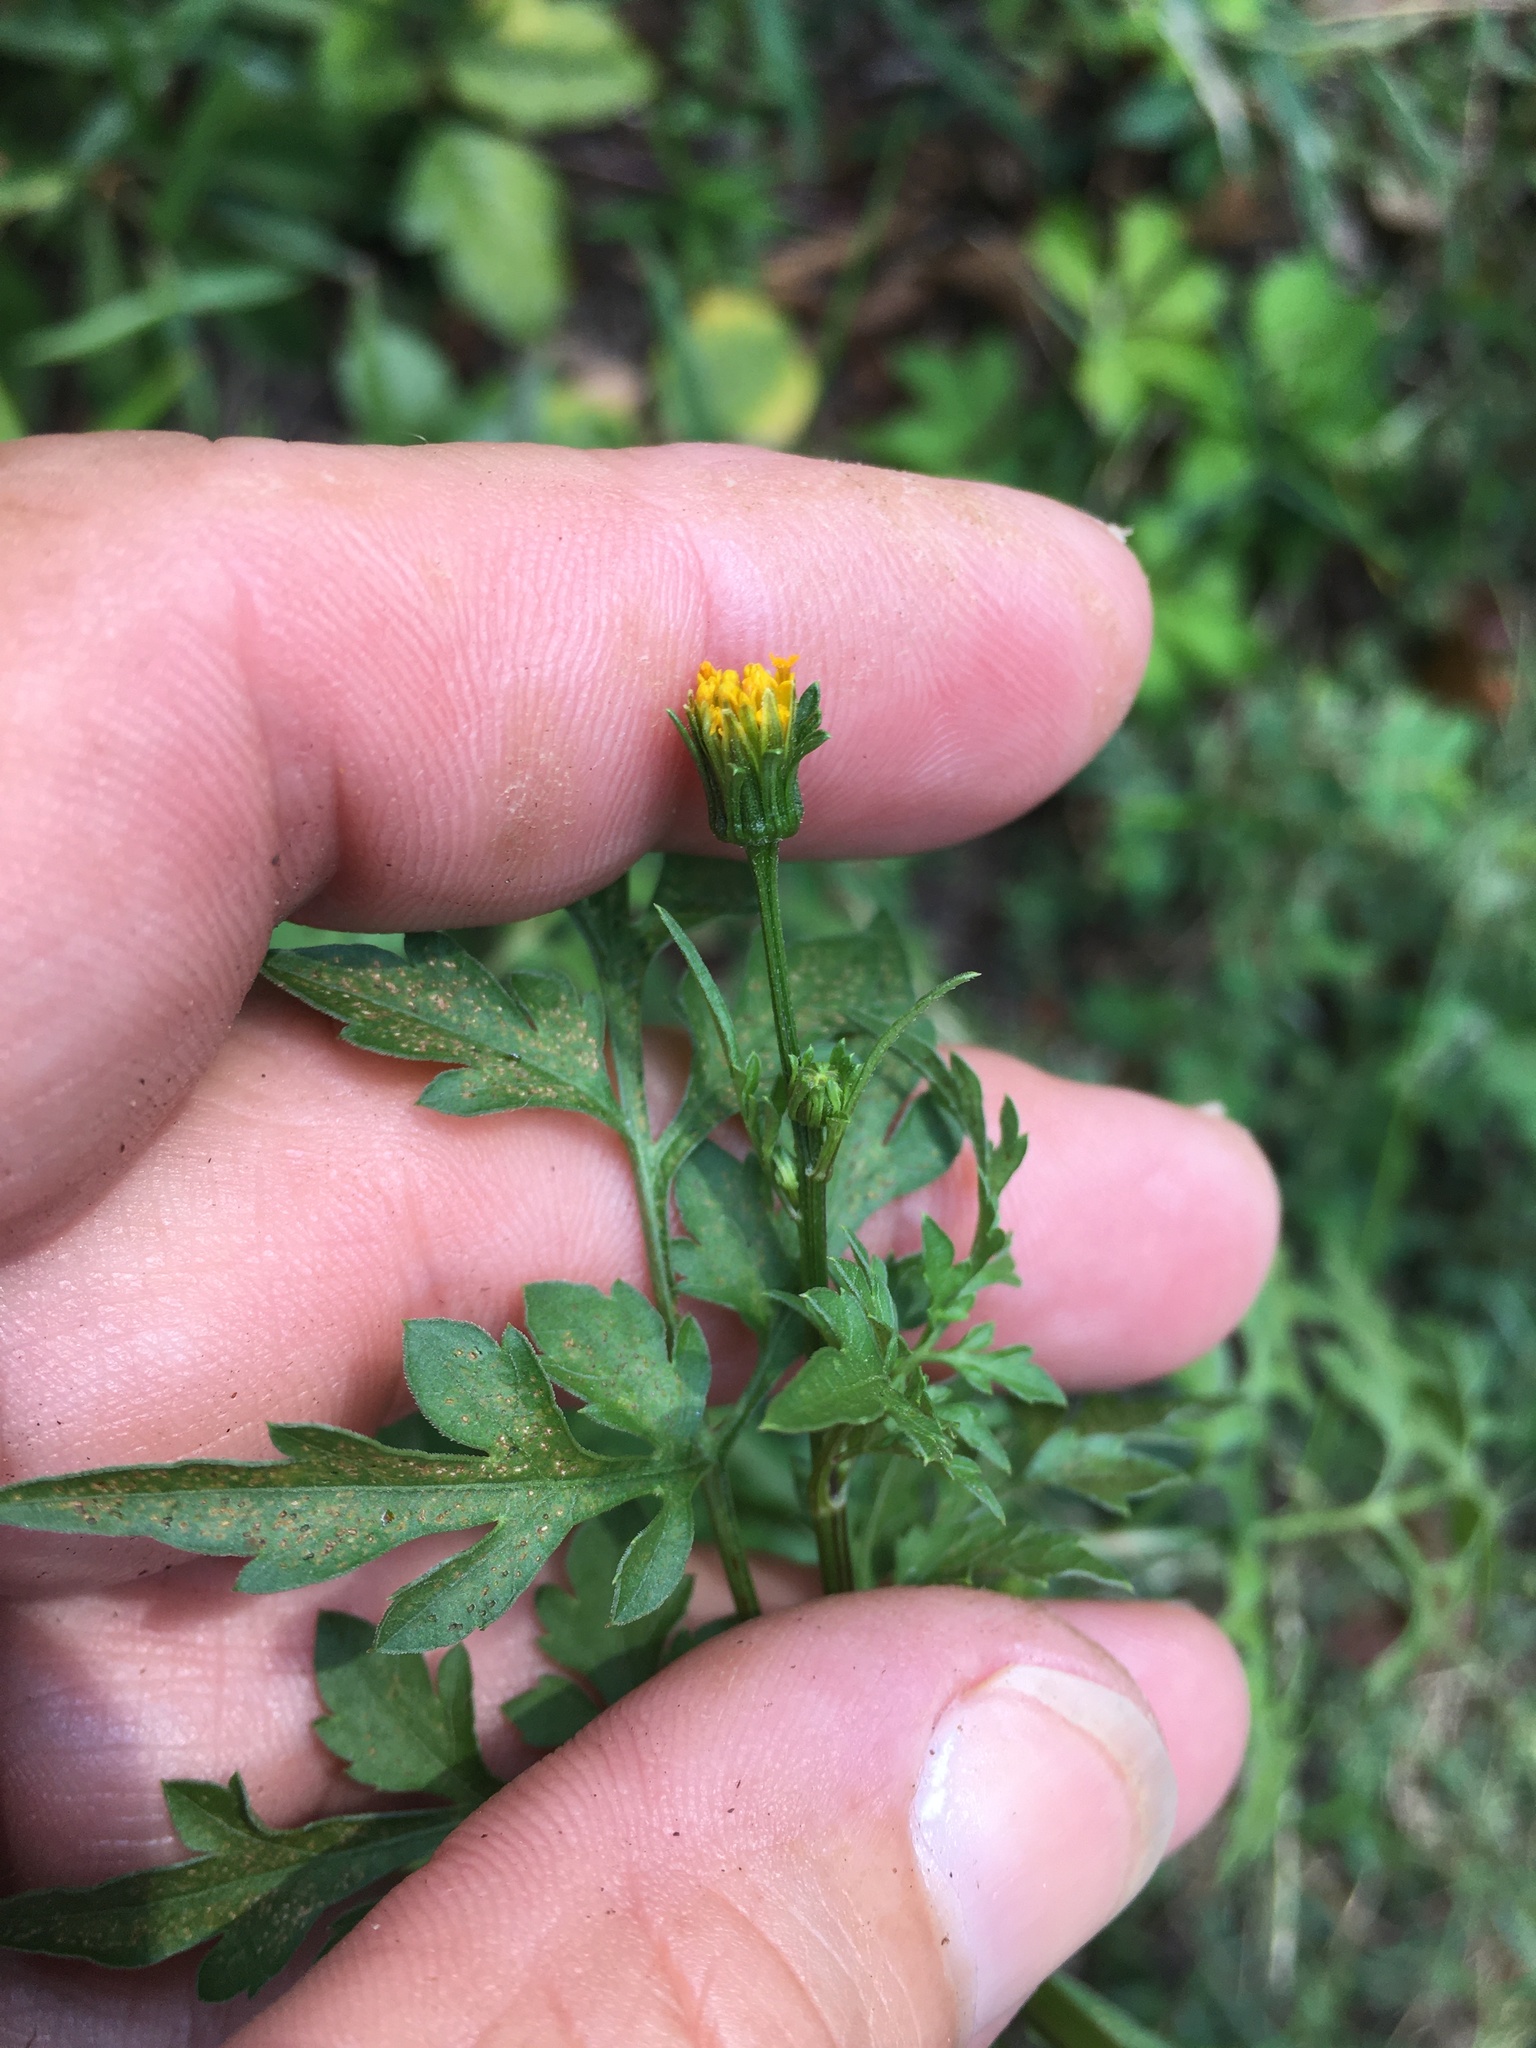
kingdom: Plantae
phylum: Tracheophyta
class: Magnoliopsida
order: Asterales
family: Asteraceae
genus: Bidens
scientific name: Bidens bipinnata
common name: Spanish-needles
